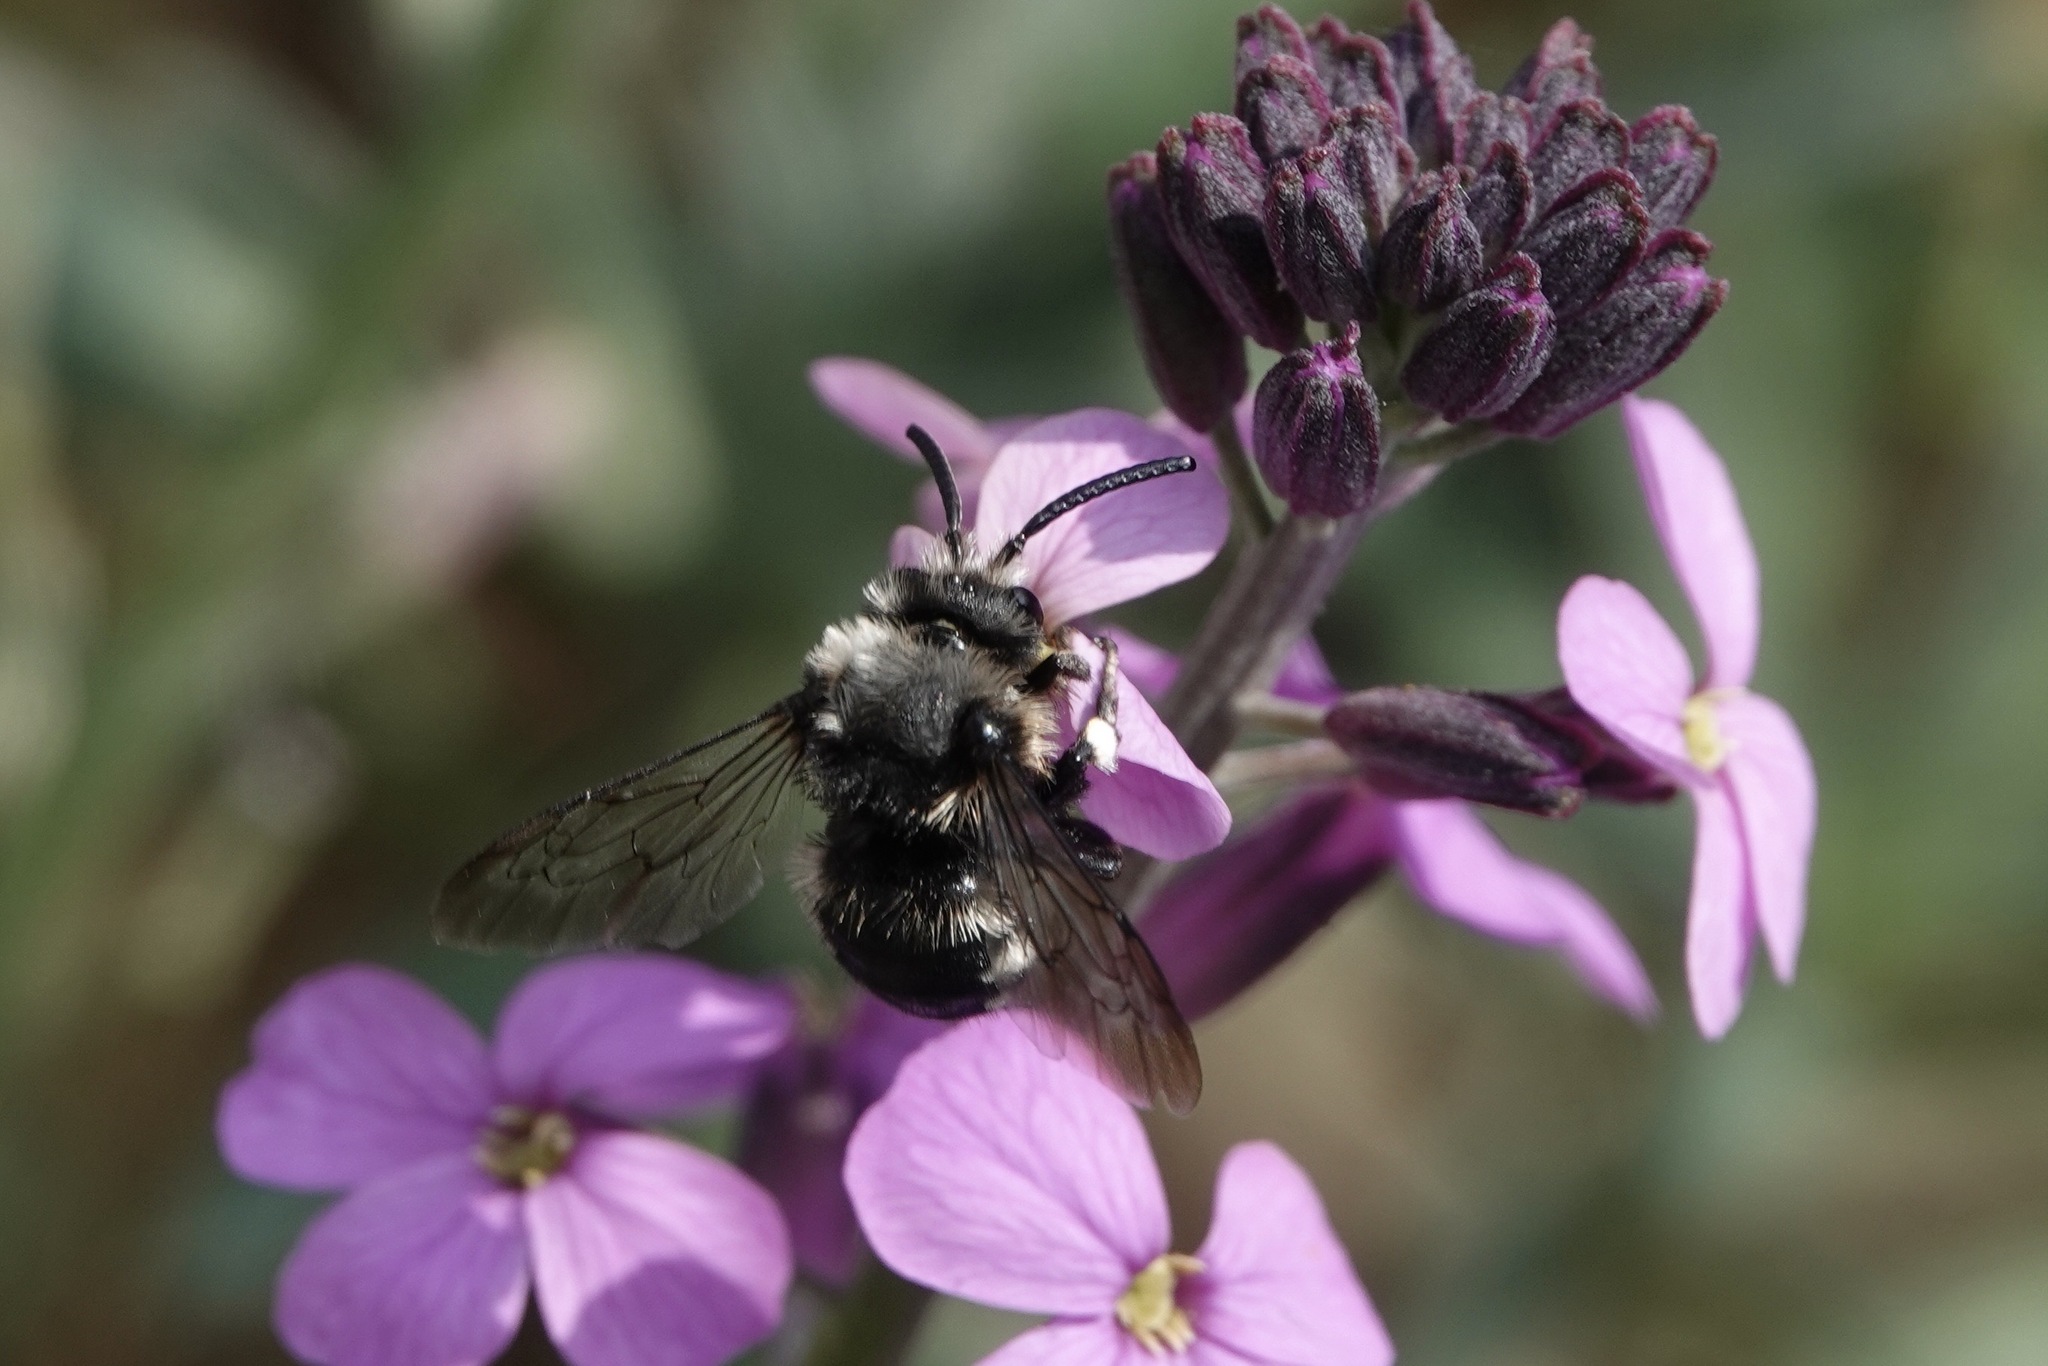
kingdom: Animalia
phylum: Arthropoda
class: Insecta
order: Hymenoptera
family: Apidae
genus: Melecta
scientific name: Melecta albifrons
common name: Common mourning bee
